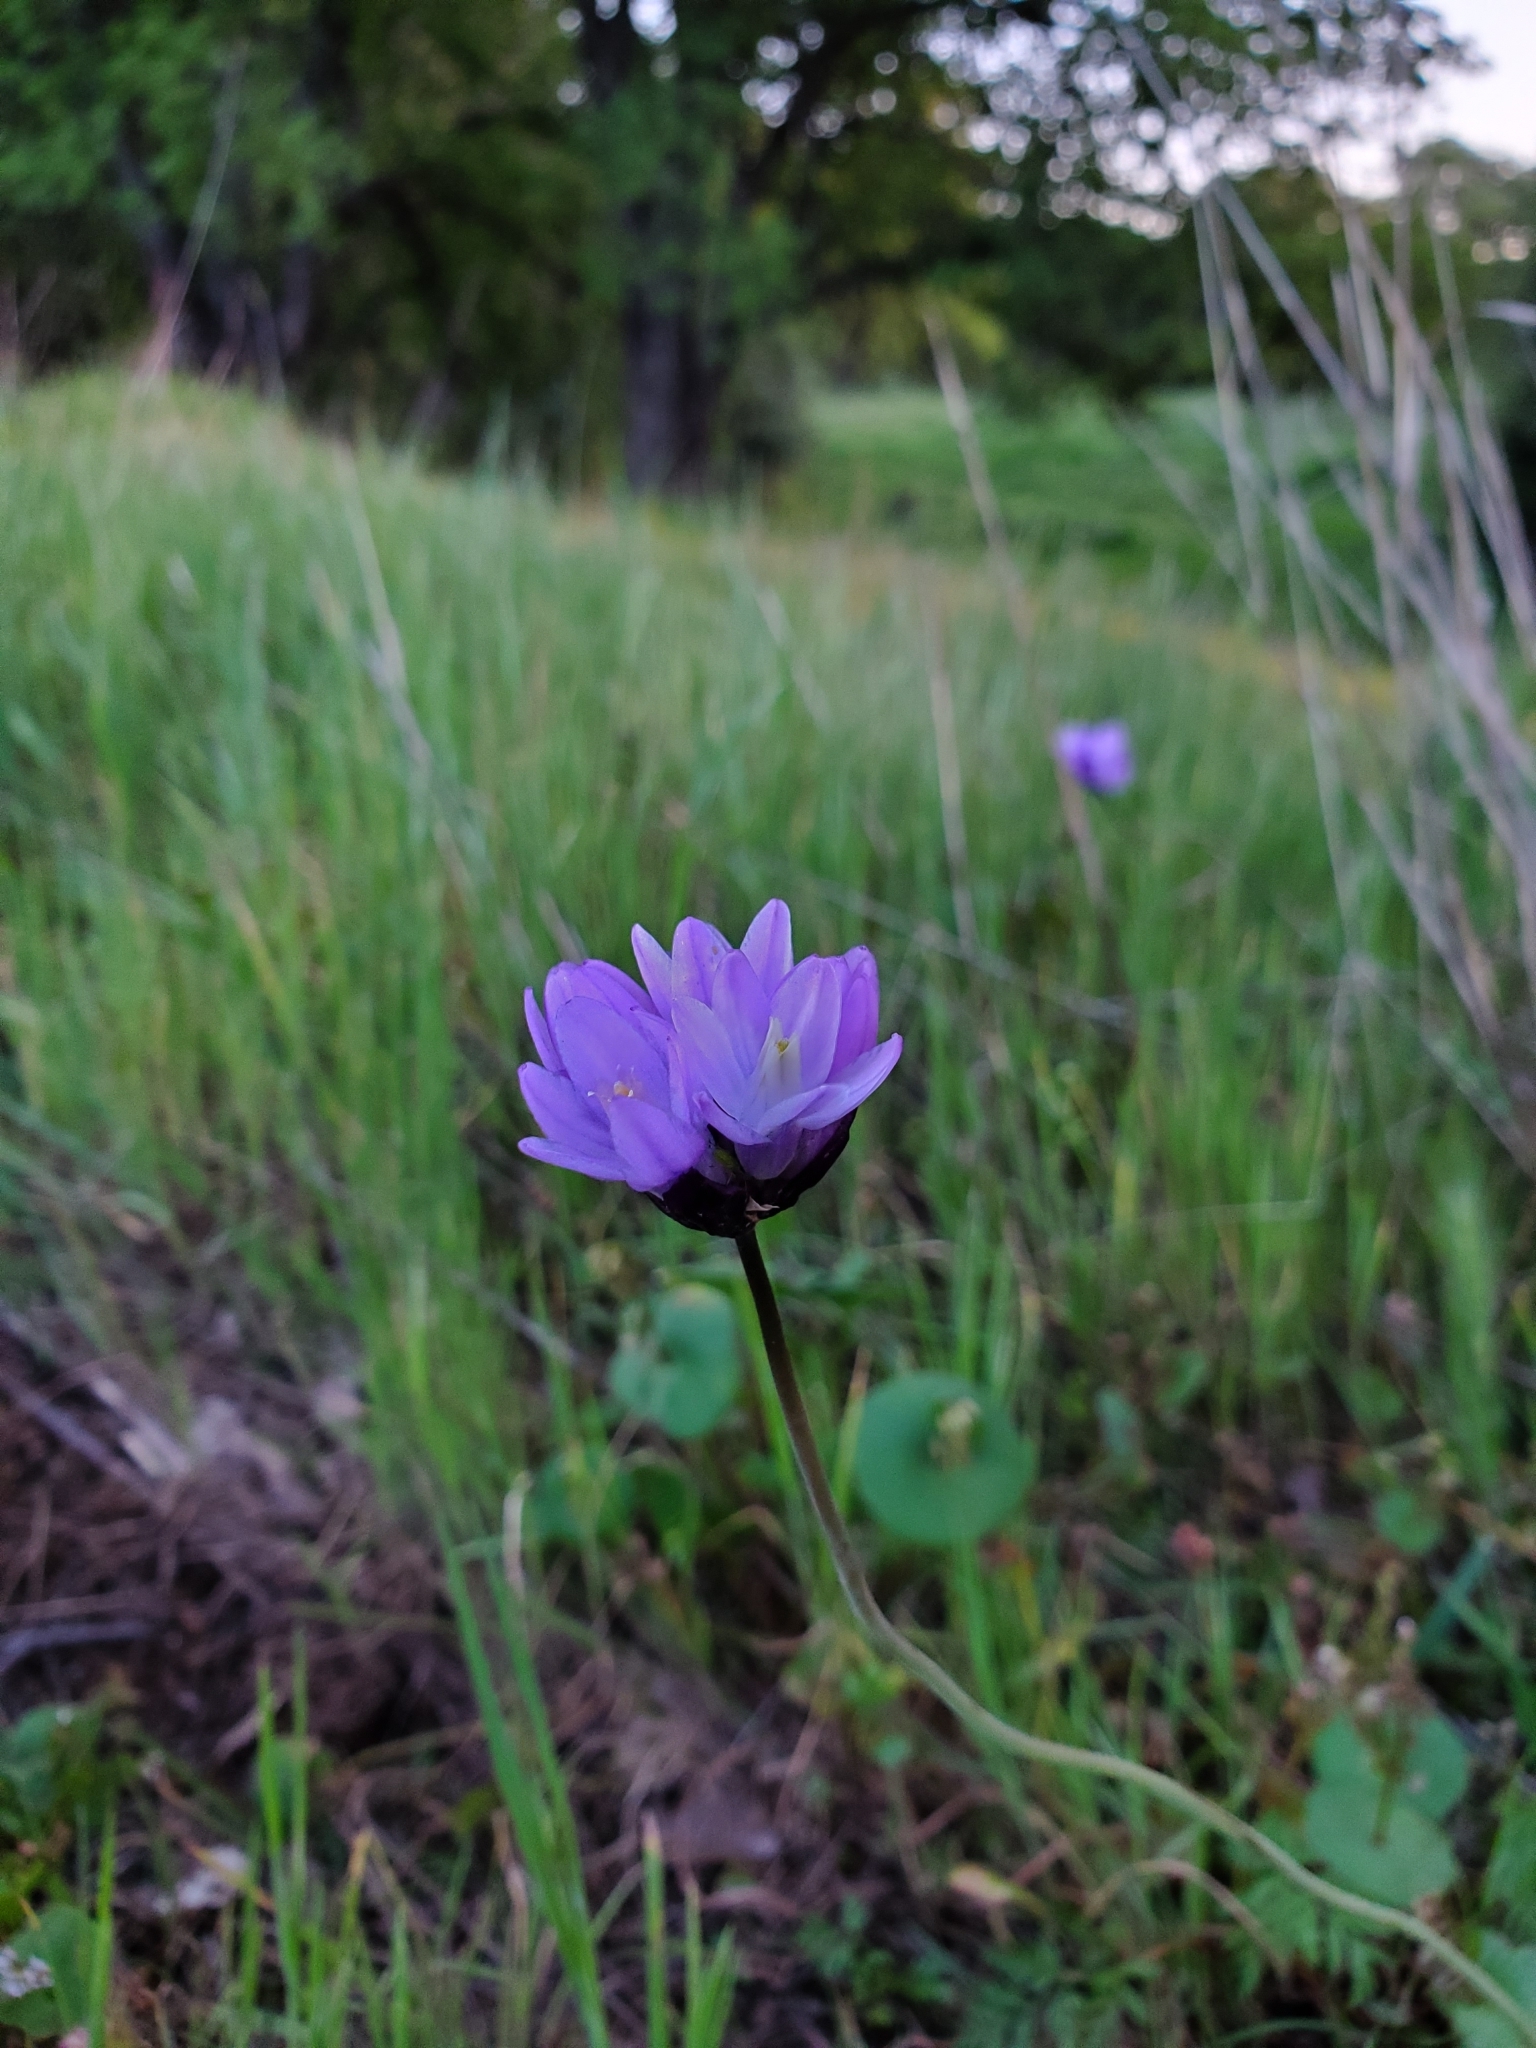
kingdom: Plantae
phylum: Tracheophyta
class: Liliopsida
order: Asparagales
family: Asparagaceae
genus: Dipterostemon
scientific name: Dipterostemon capitatus
